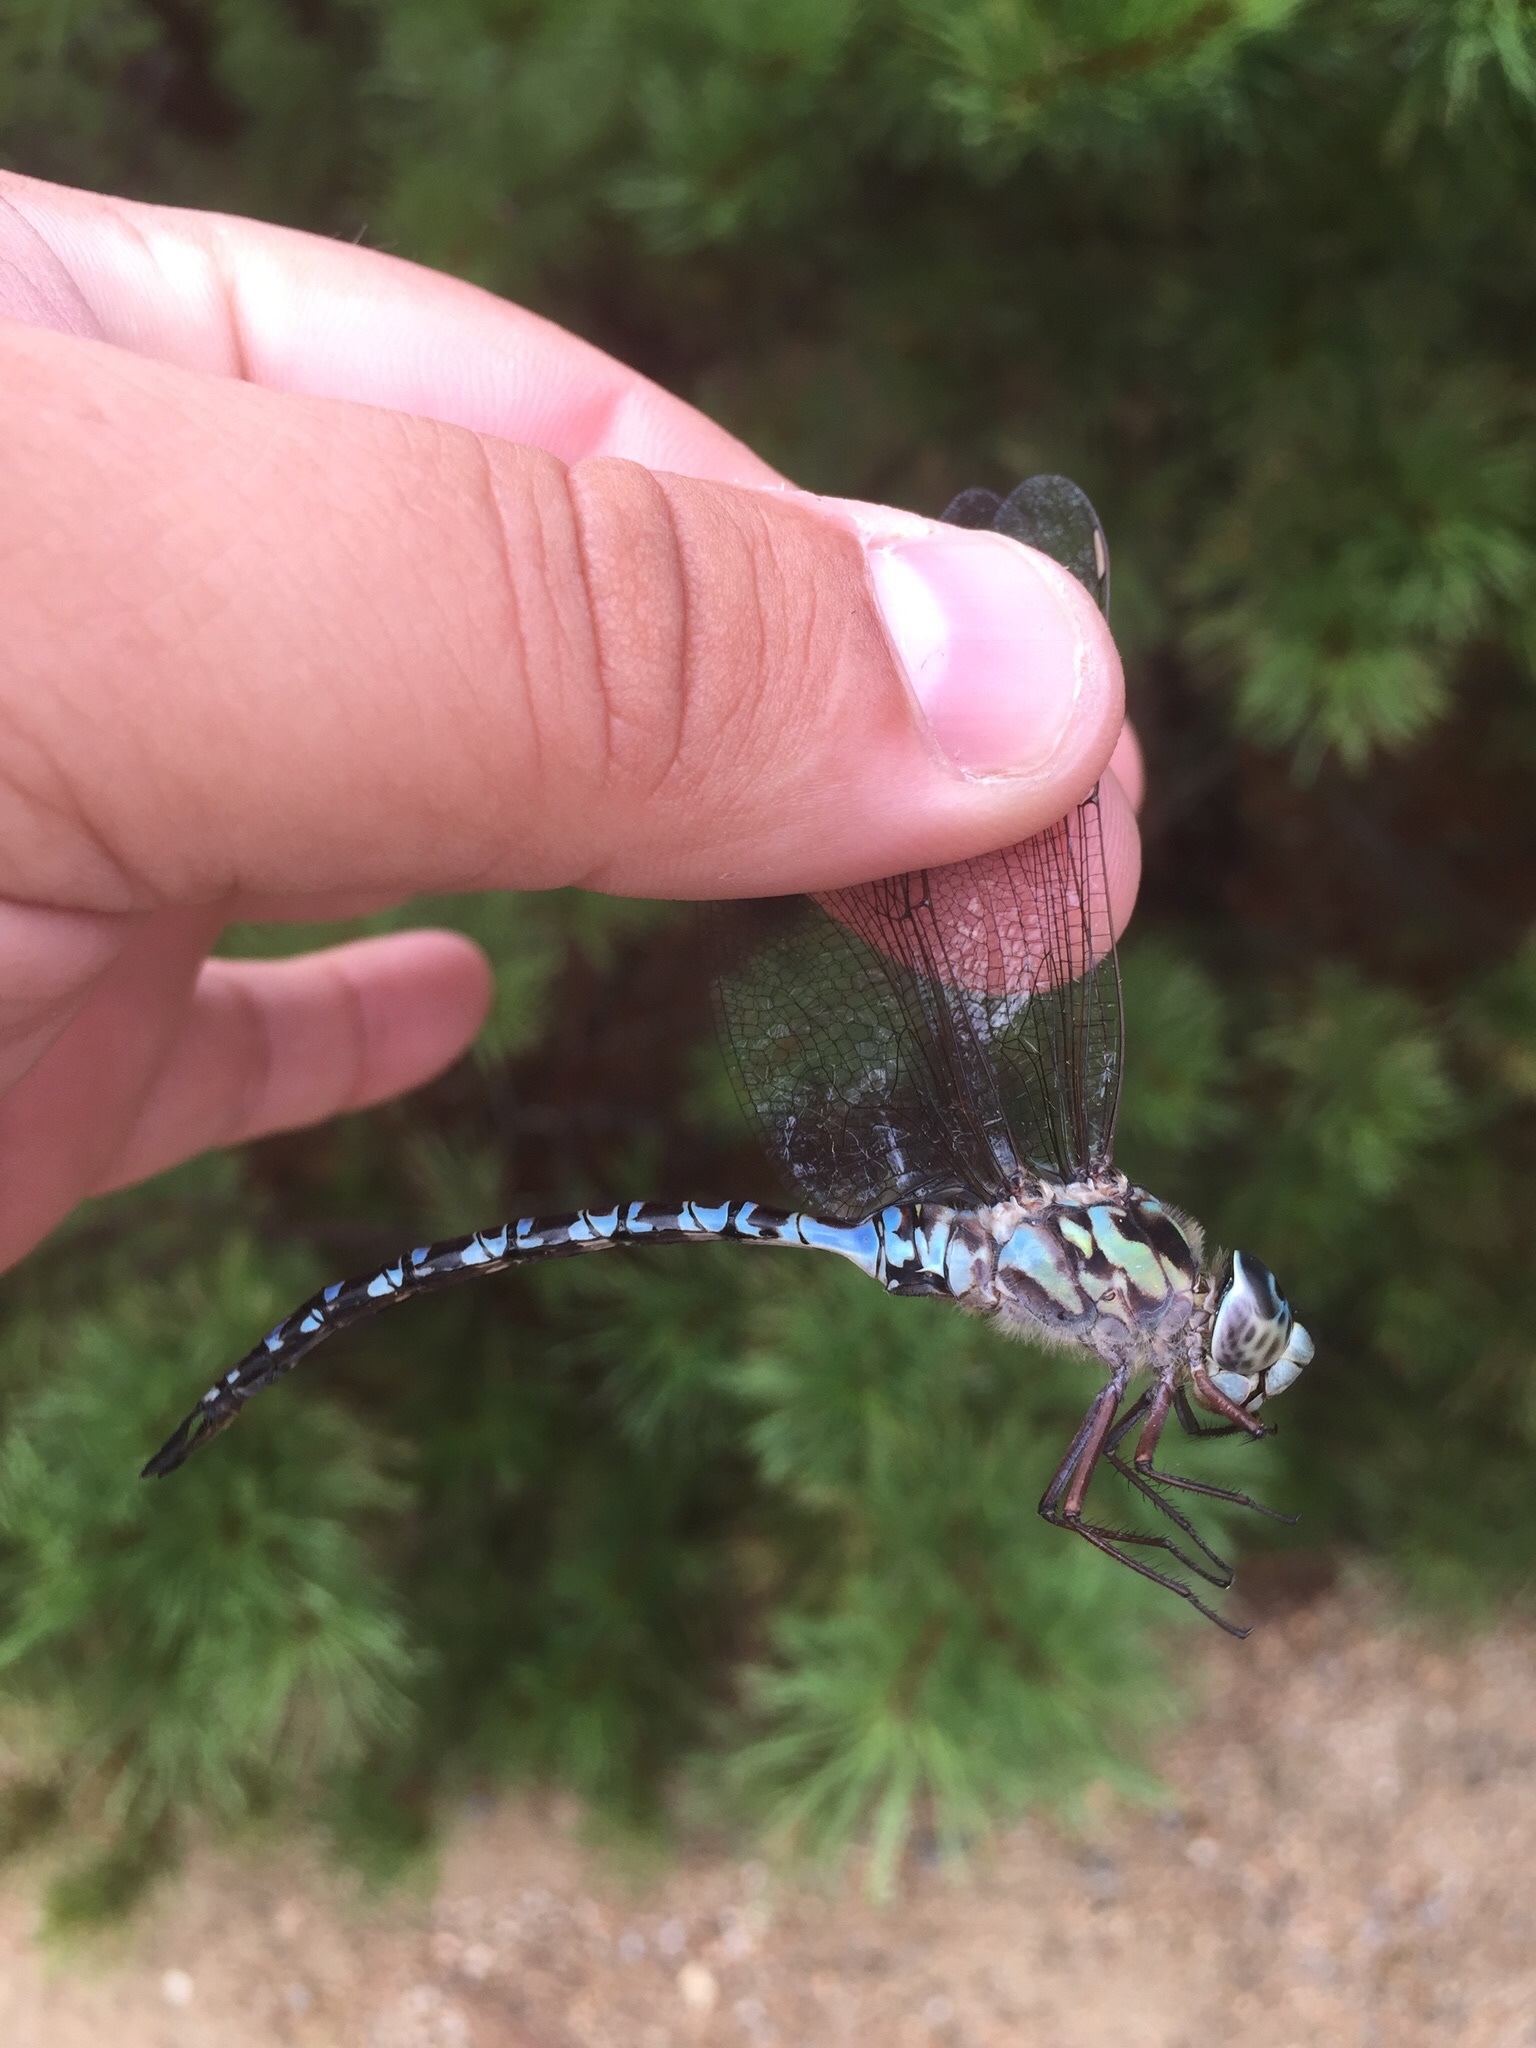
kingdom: Animalia
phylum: Arthropoda
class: Insecta
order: Odonata
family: Aeshnidae
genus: Aeshna
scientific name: Aeshna clepsydra
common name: Mottled darner
